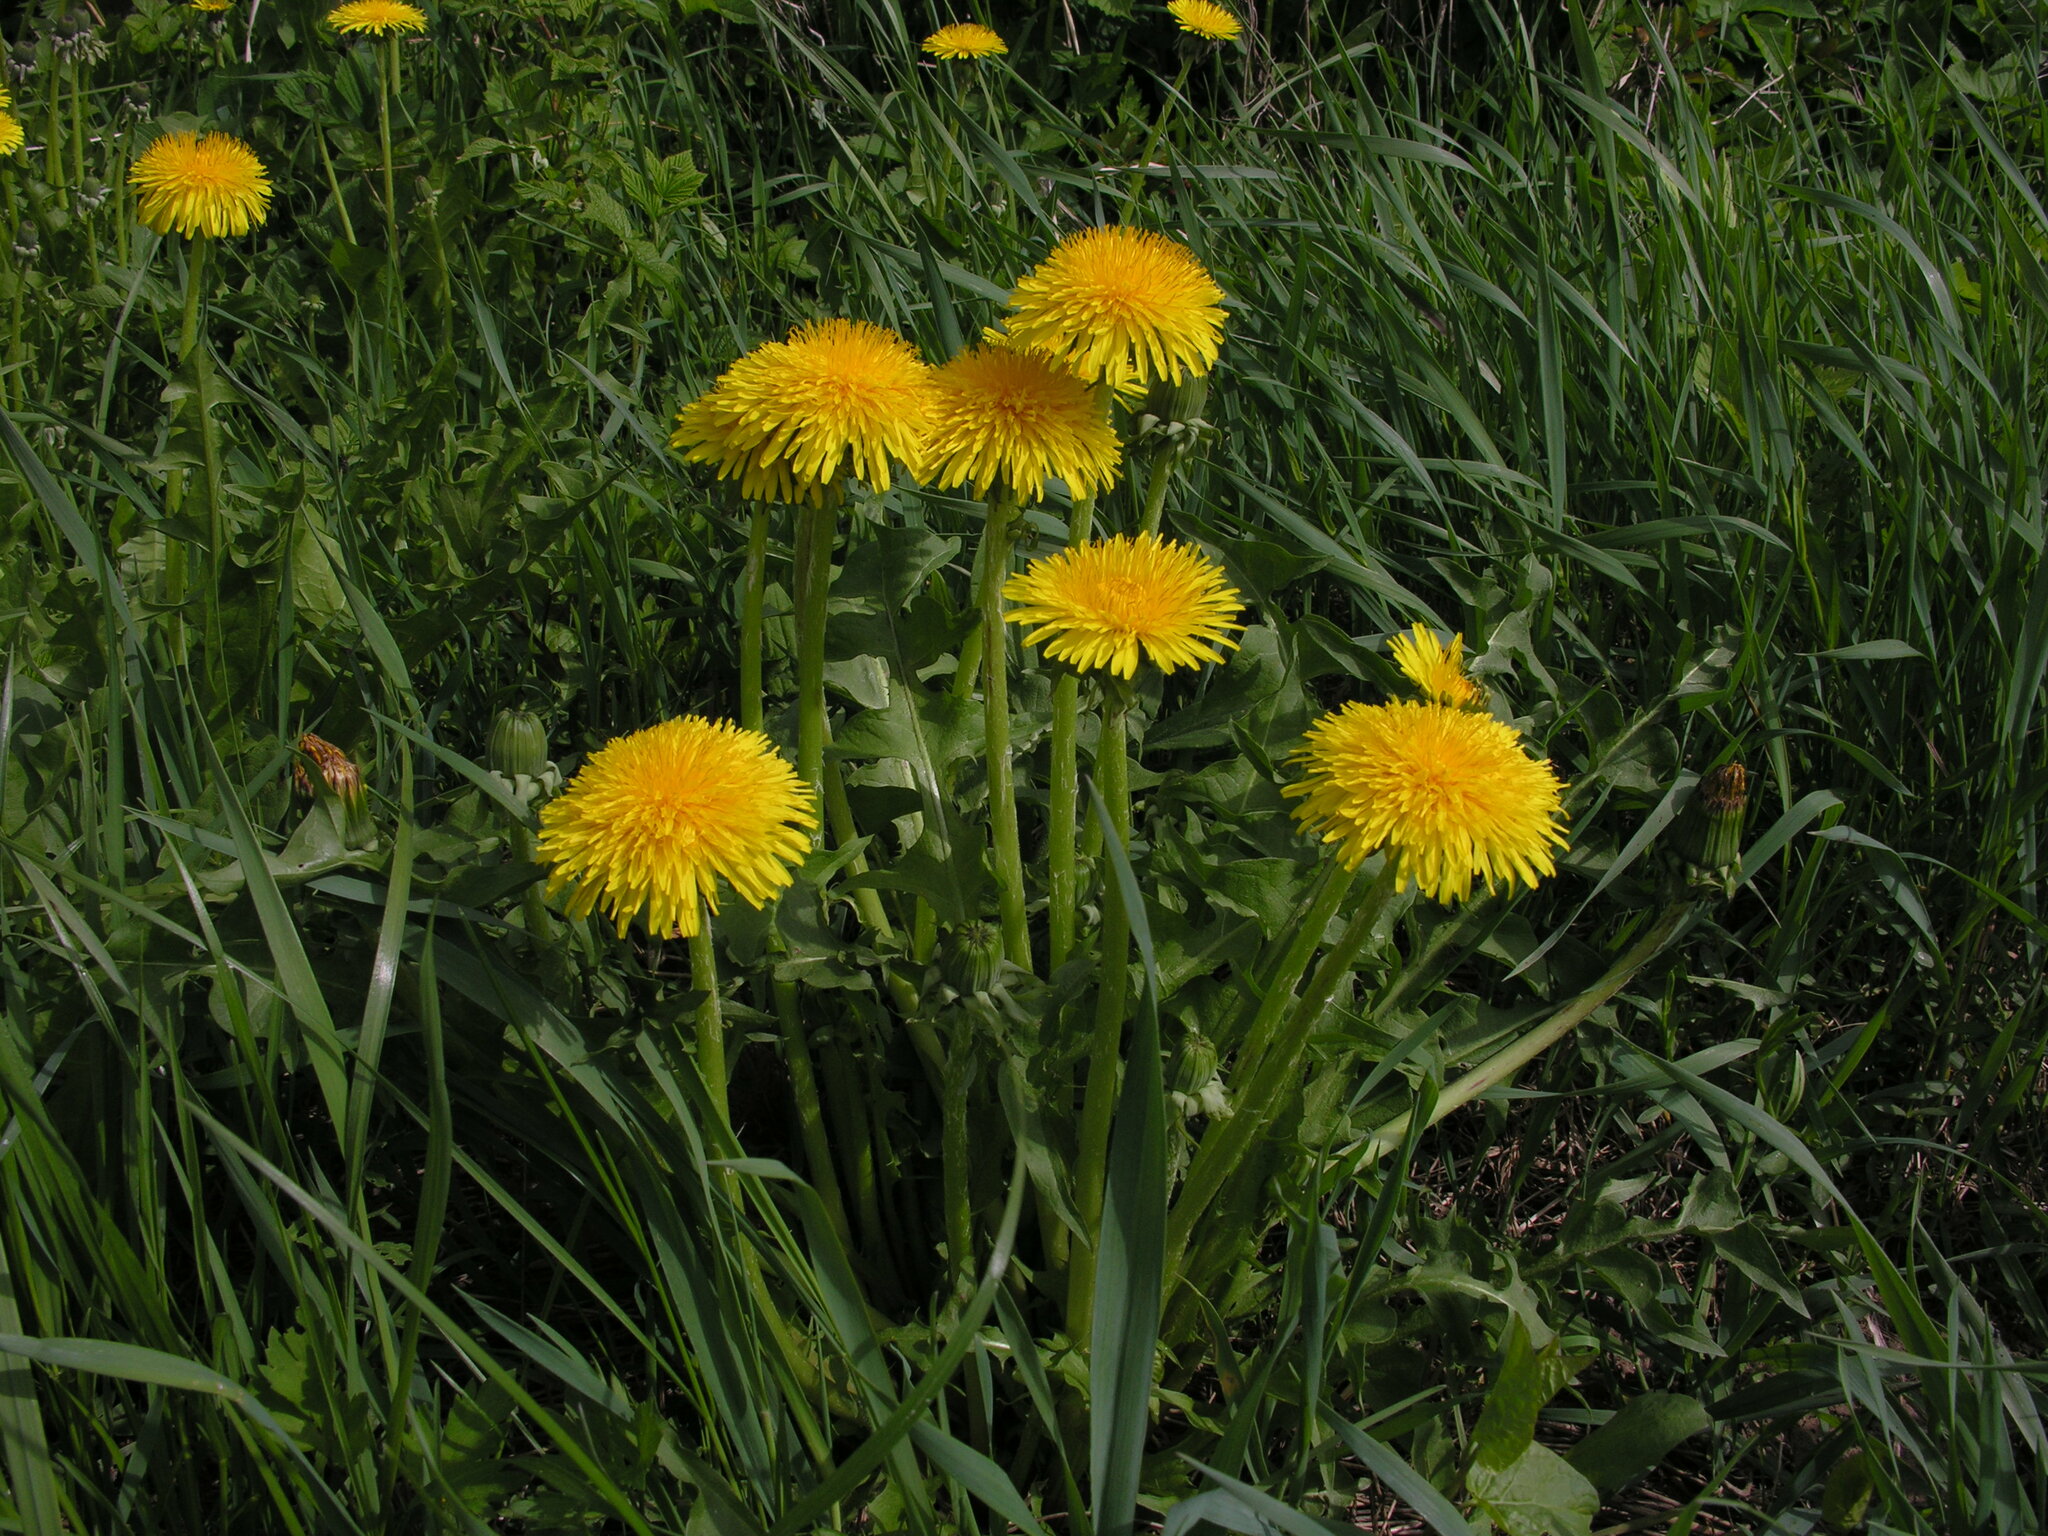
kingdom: Plantae
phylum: Tracheophyta
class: Magnoliopsida
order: Asterales
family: Asteraceae
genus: Taraxacum
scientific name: Taraxacum officinale
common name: Common dandelion
